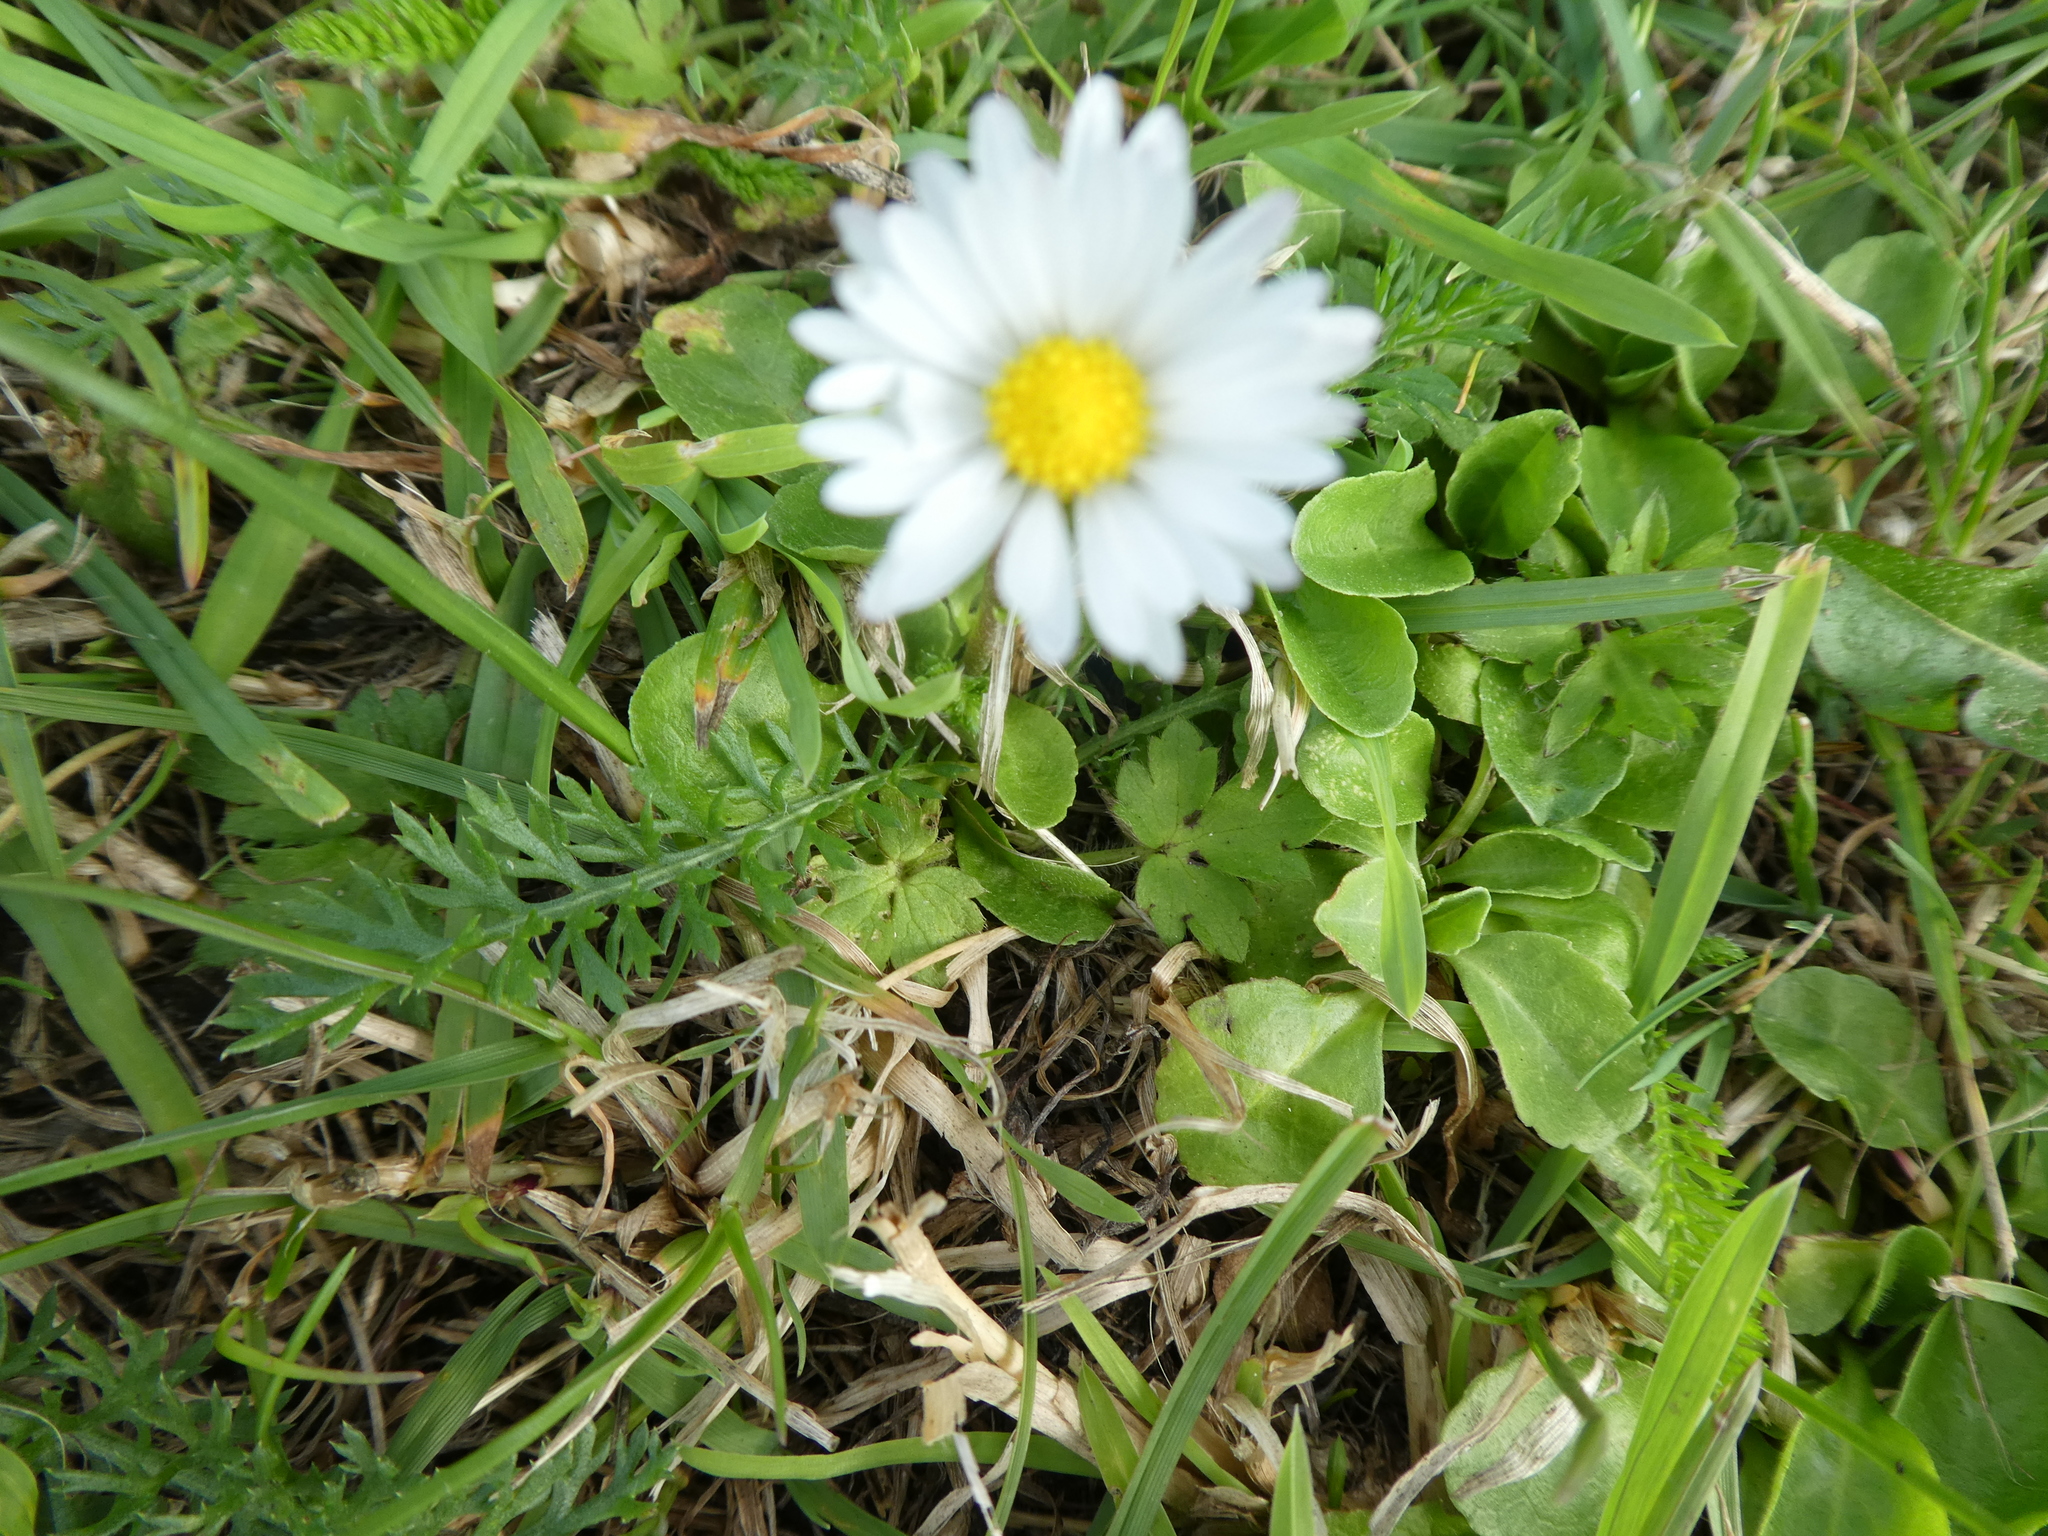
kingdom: Plantae
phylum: Tracheophyta
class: Magnoliopsida
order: Asterales
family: Asteraceae
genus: Bellis
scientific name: Bellis perennis
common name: Lawndaisy
